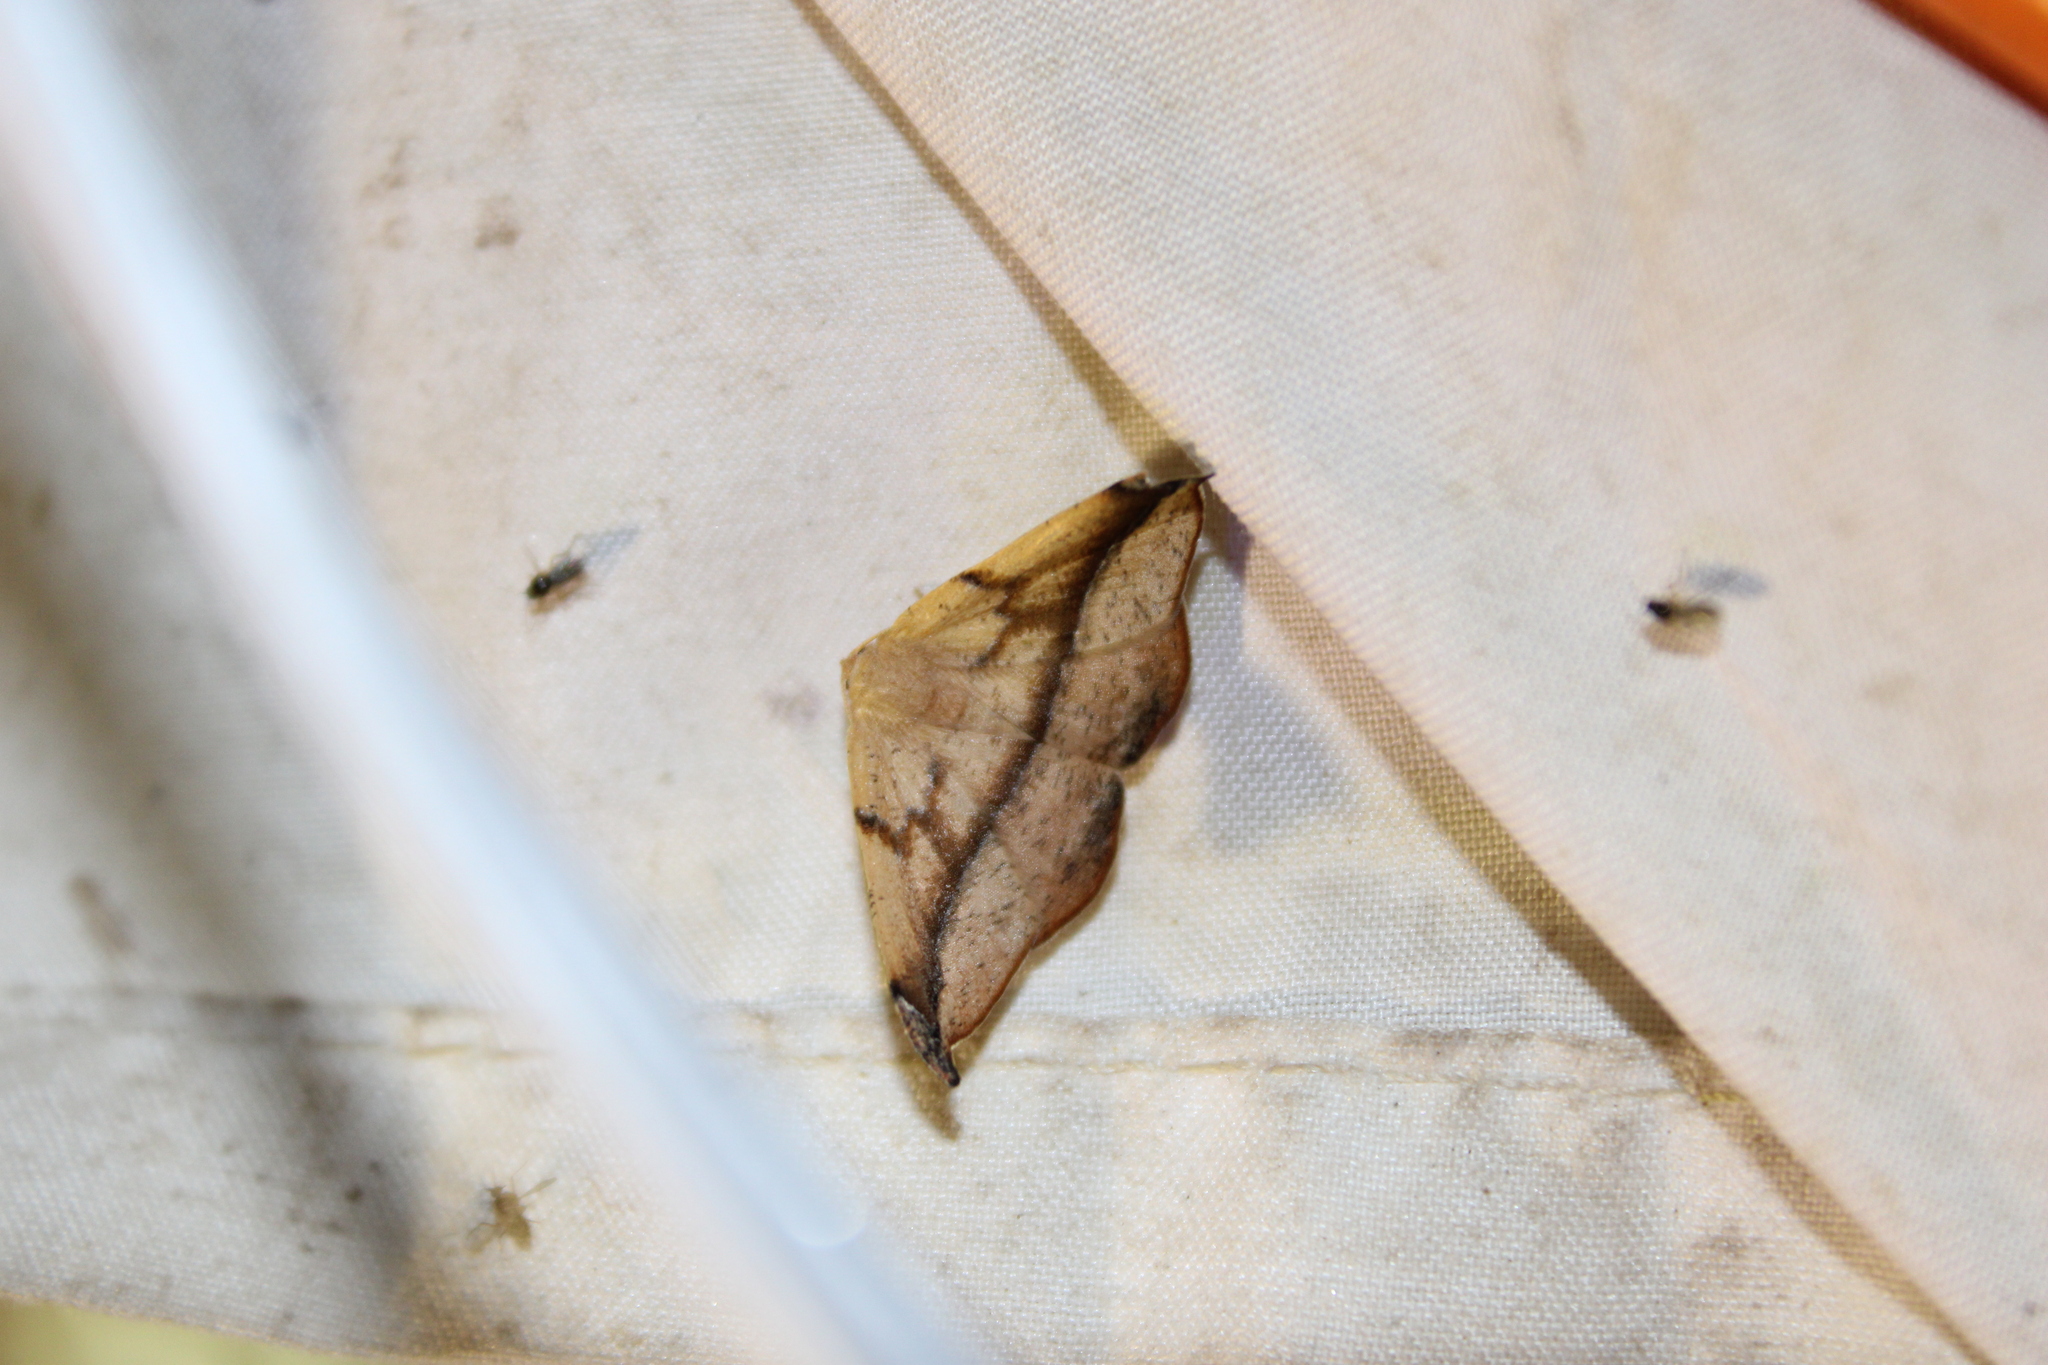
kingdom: Animalia
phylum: Arthropoda
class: Insecta
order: Lepidoptera
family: Geometridae
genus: Patalene
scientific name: Patalene olyzonaria
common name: Juniper geometer moth
